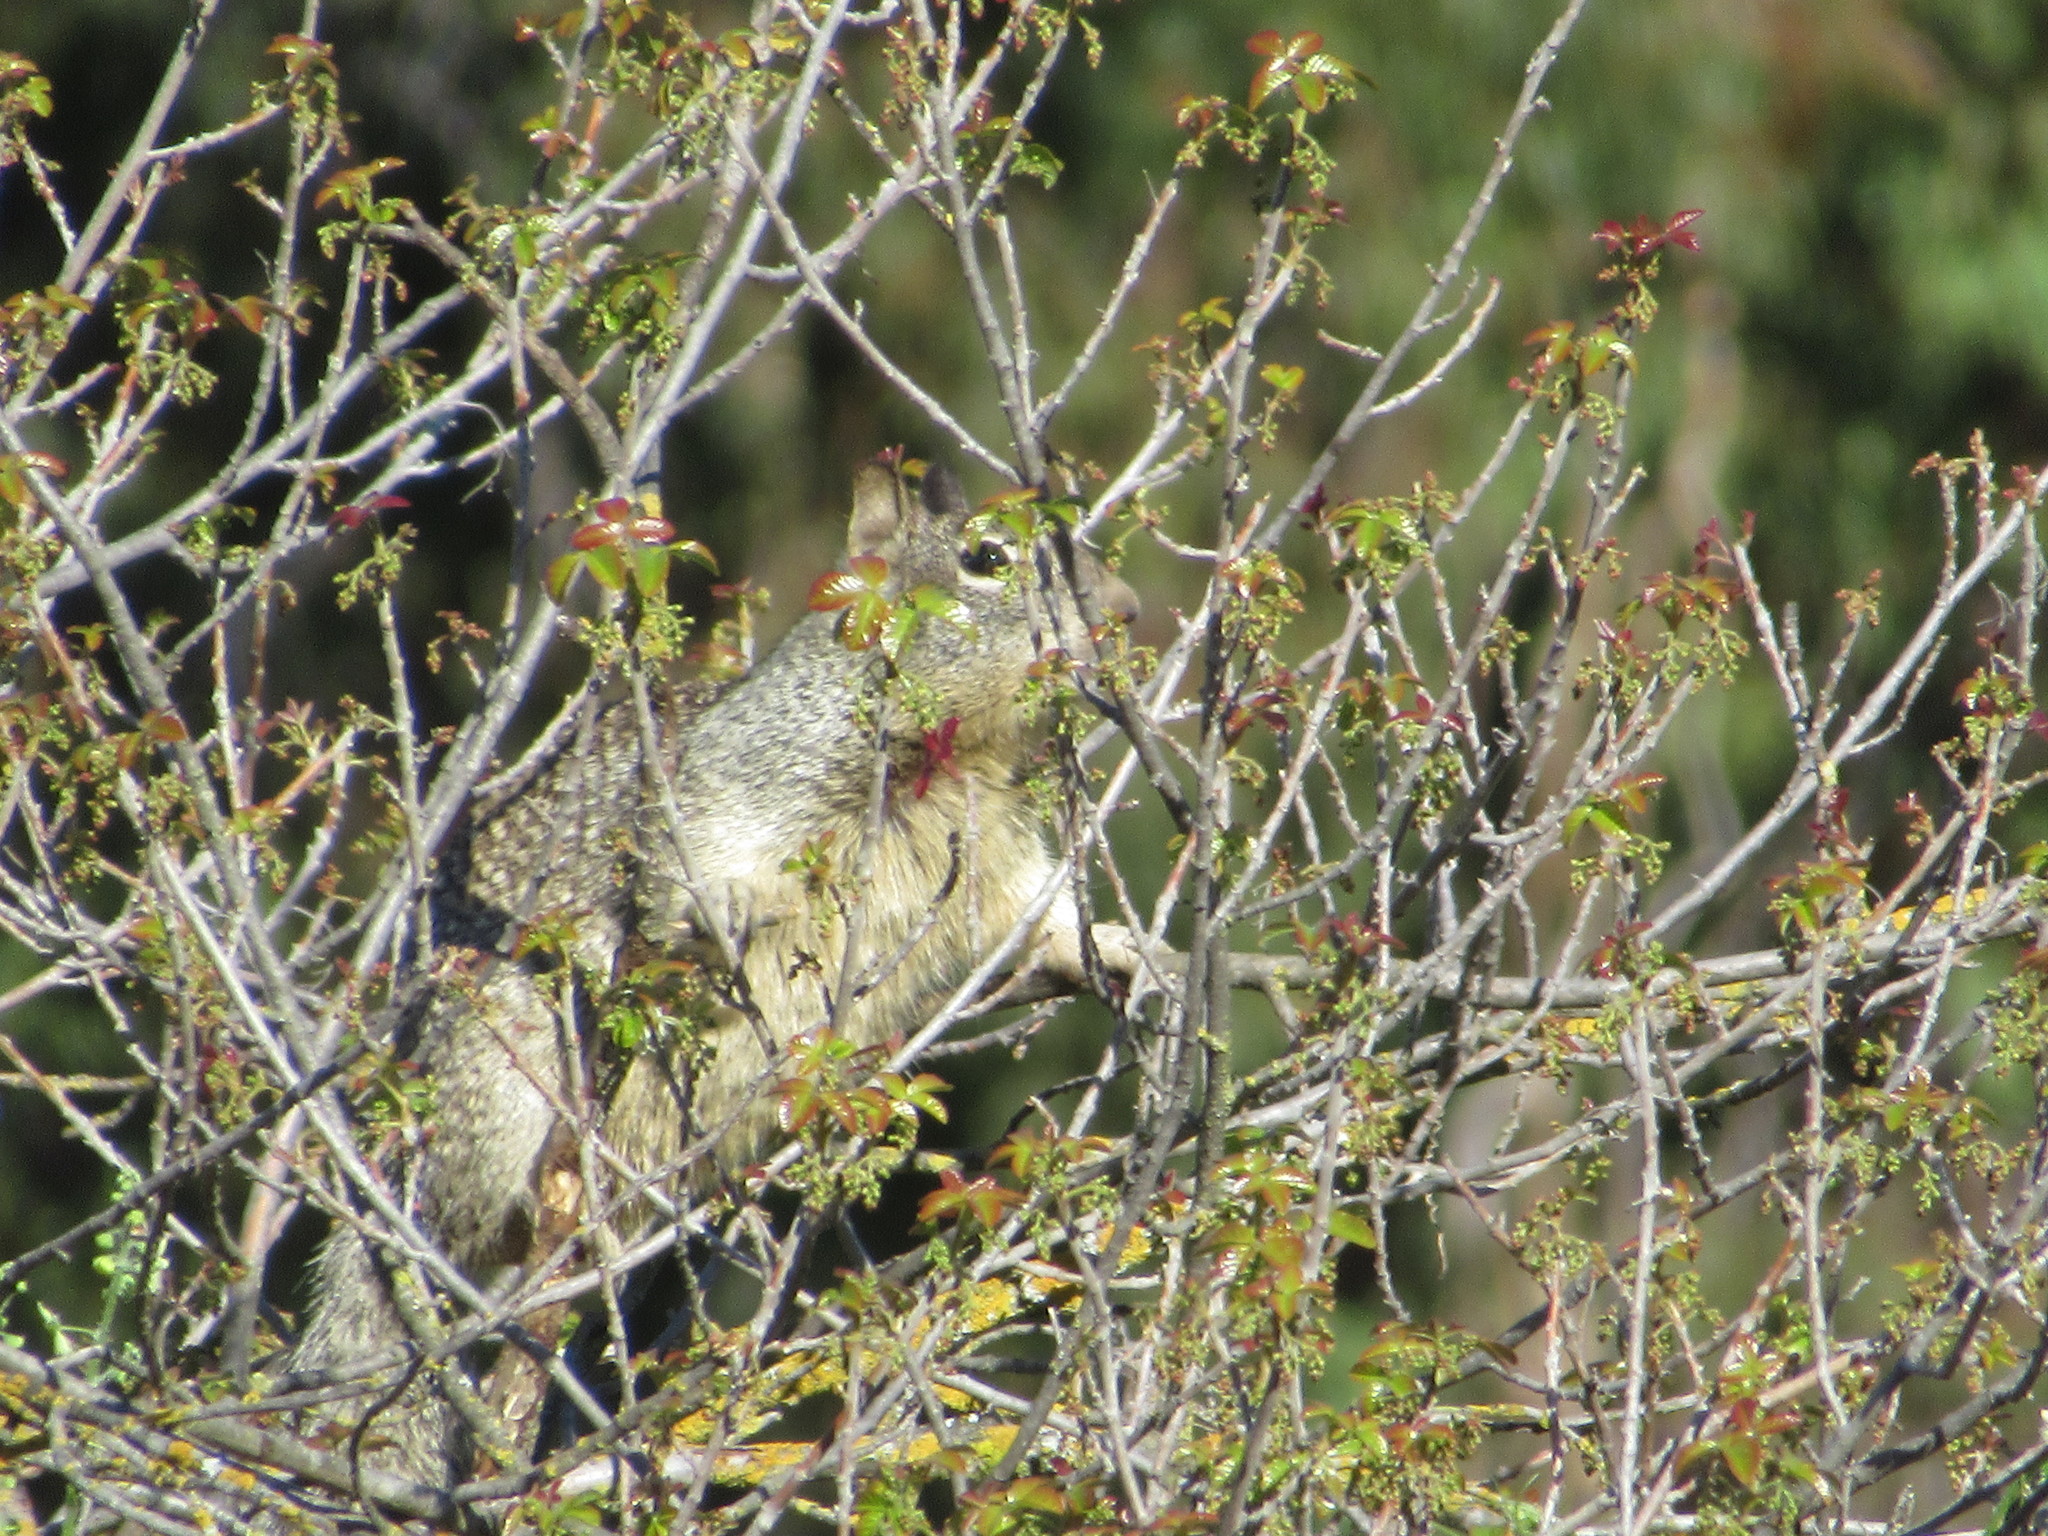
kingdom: Animalia
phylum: Chordata
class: Mammalia
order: Rodentia
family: Sciuridae
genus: Otospermophilus
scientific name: Otospermophilus beecheyi
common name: California ground squirrel
